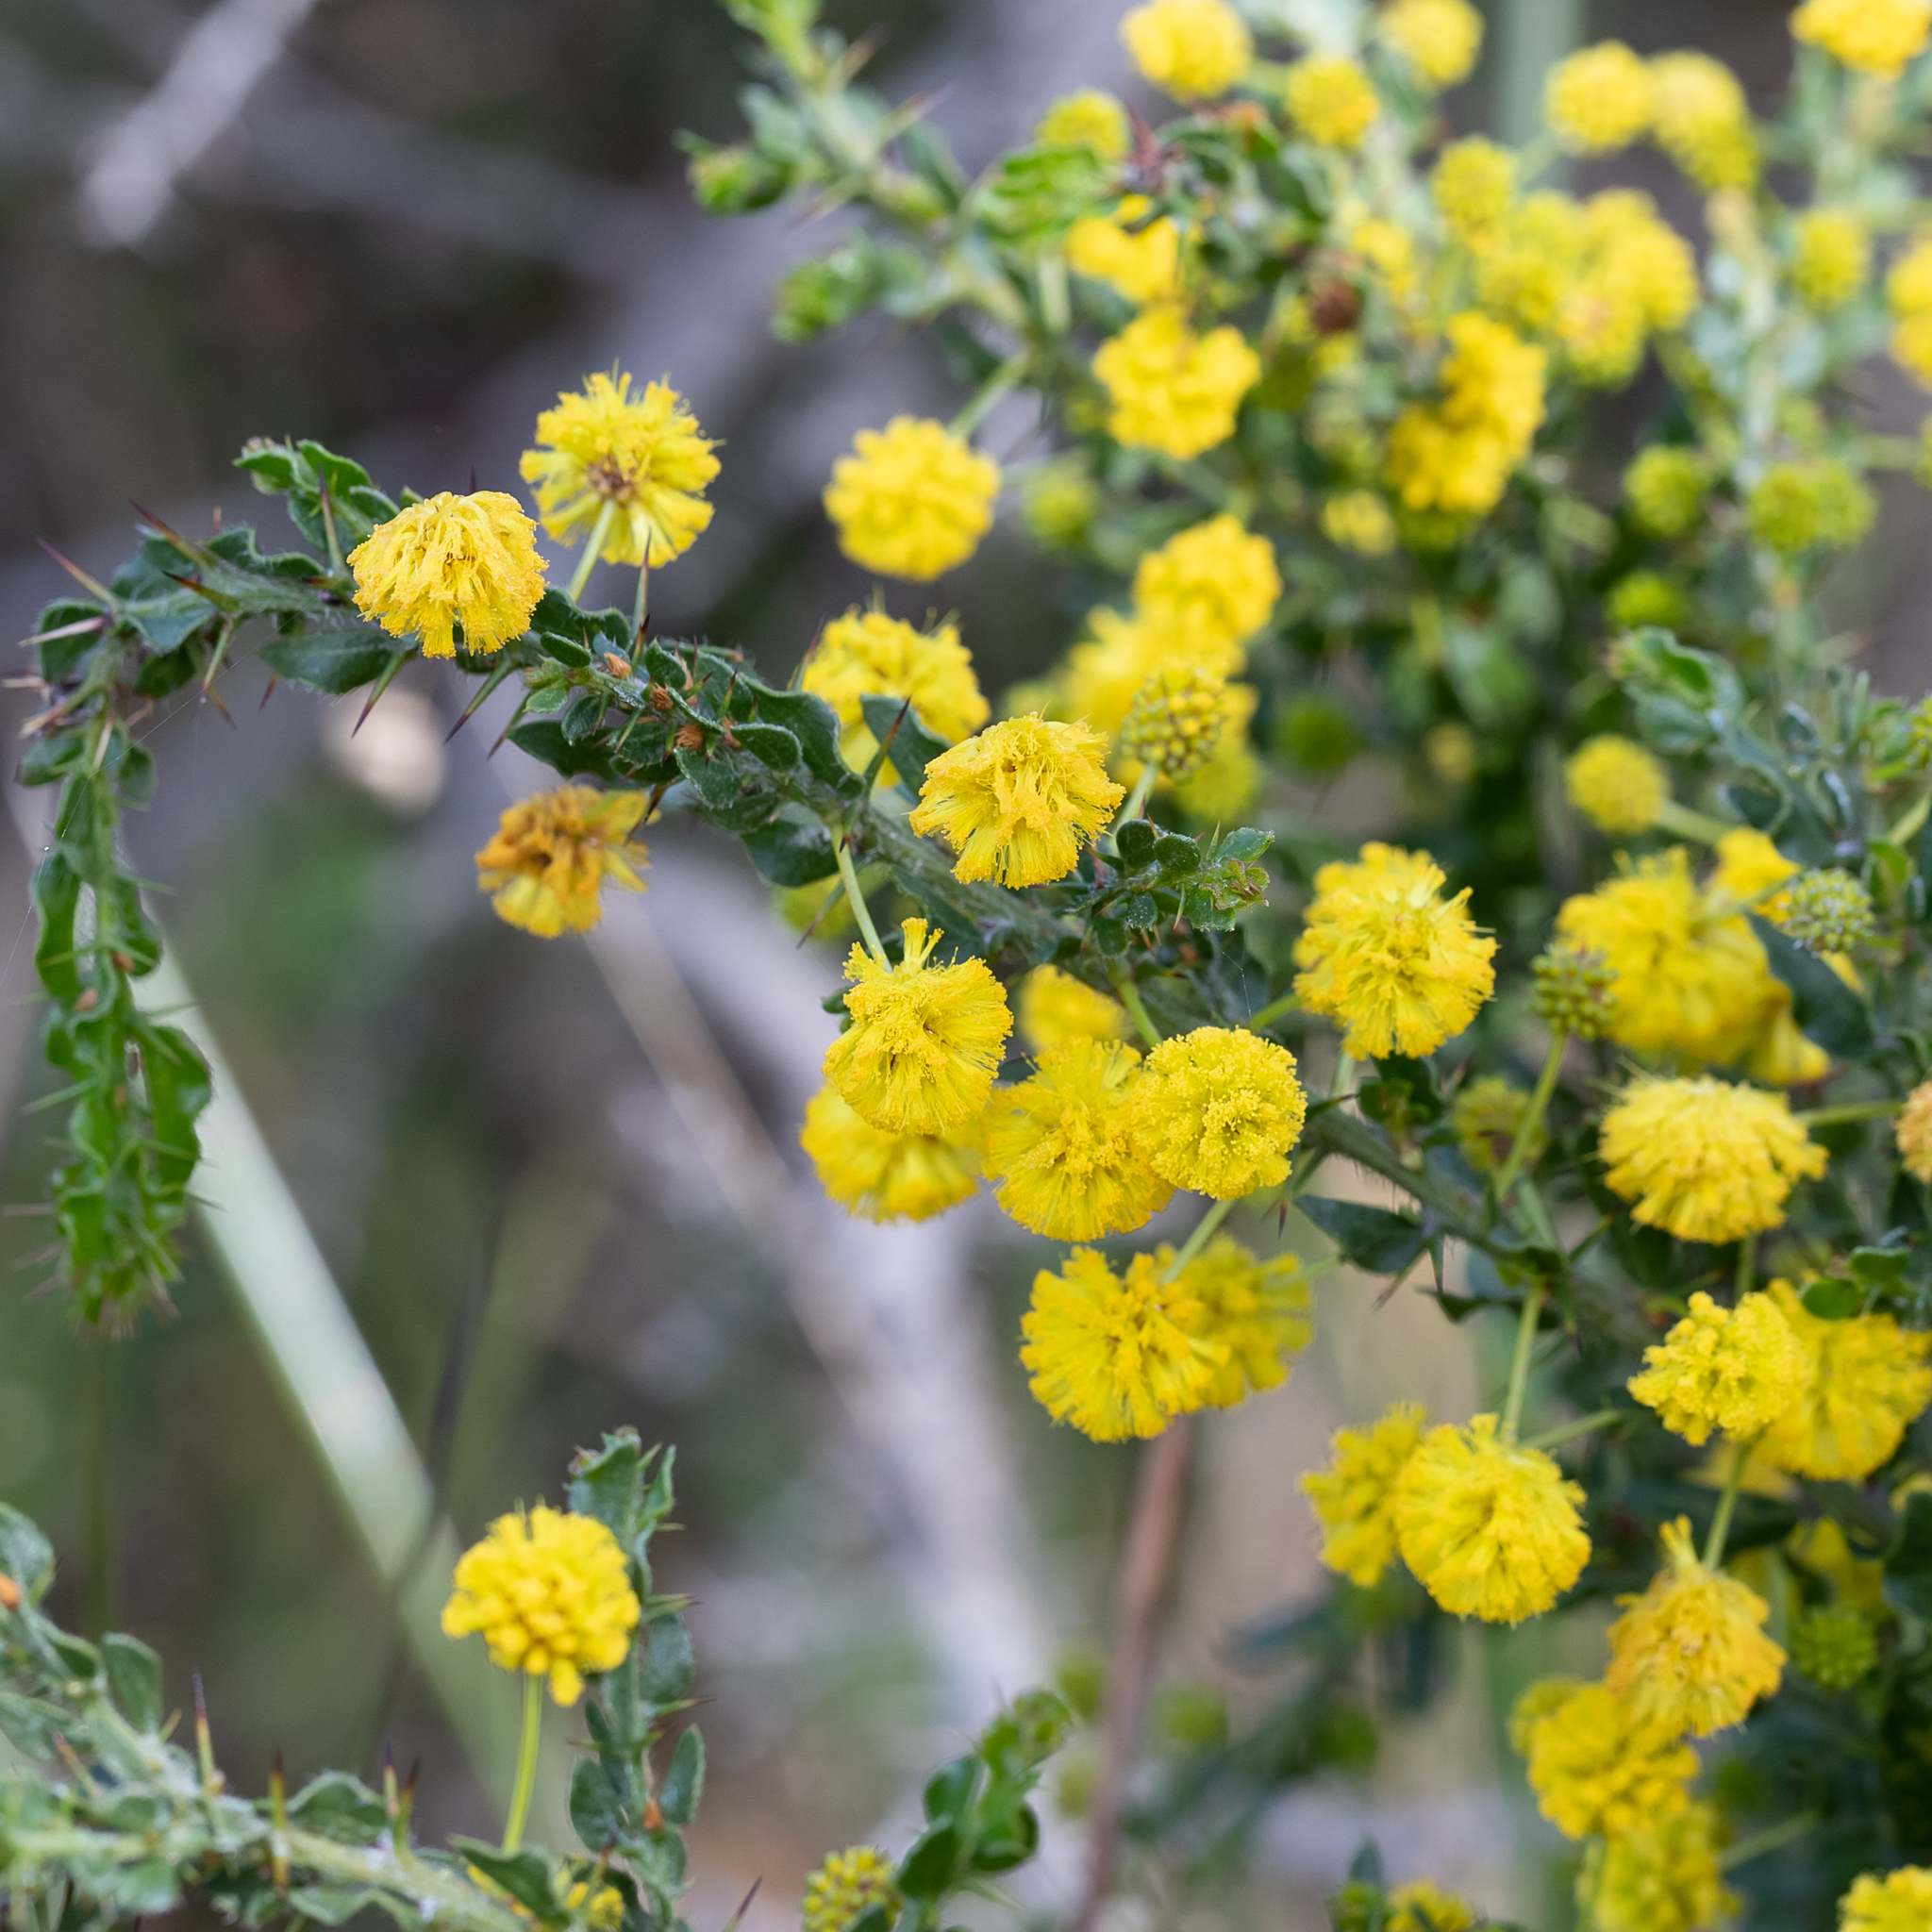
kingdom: Plantae
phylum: Tracheophyta
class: Magnoliopsida
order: Fabales
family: Fabaceae
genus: Acacia
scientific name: Acacia paradoxa
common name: Paradox acacia
